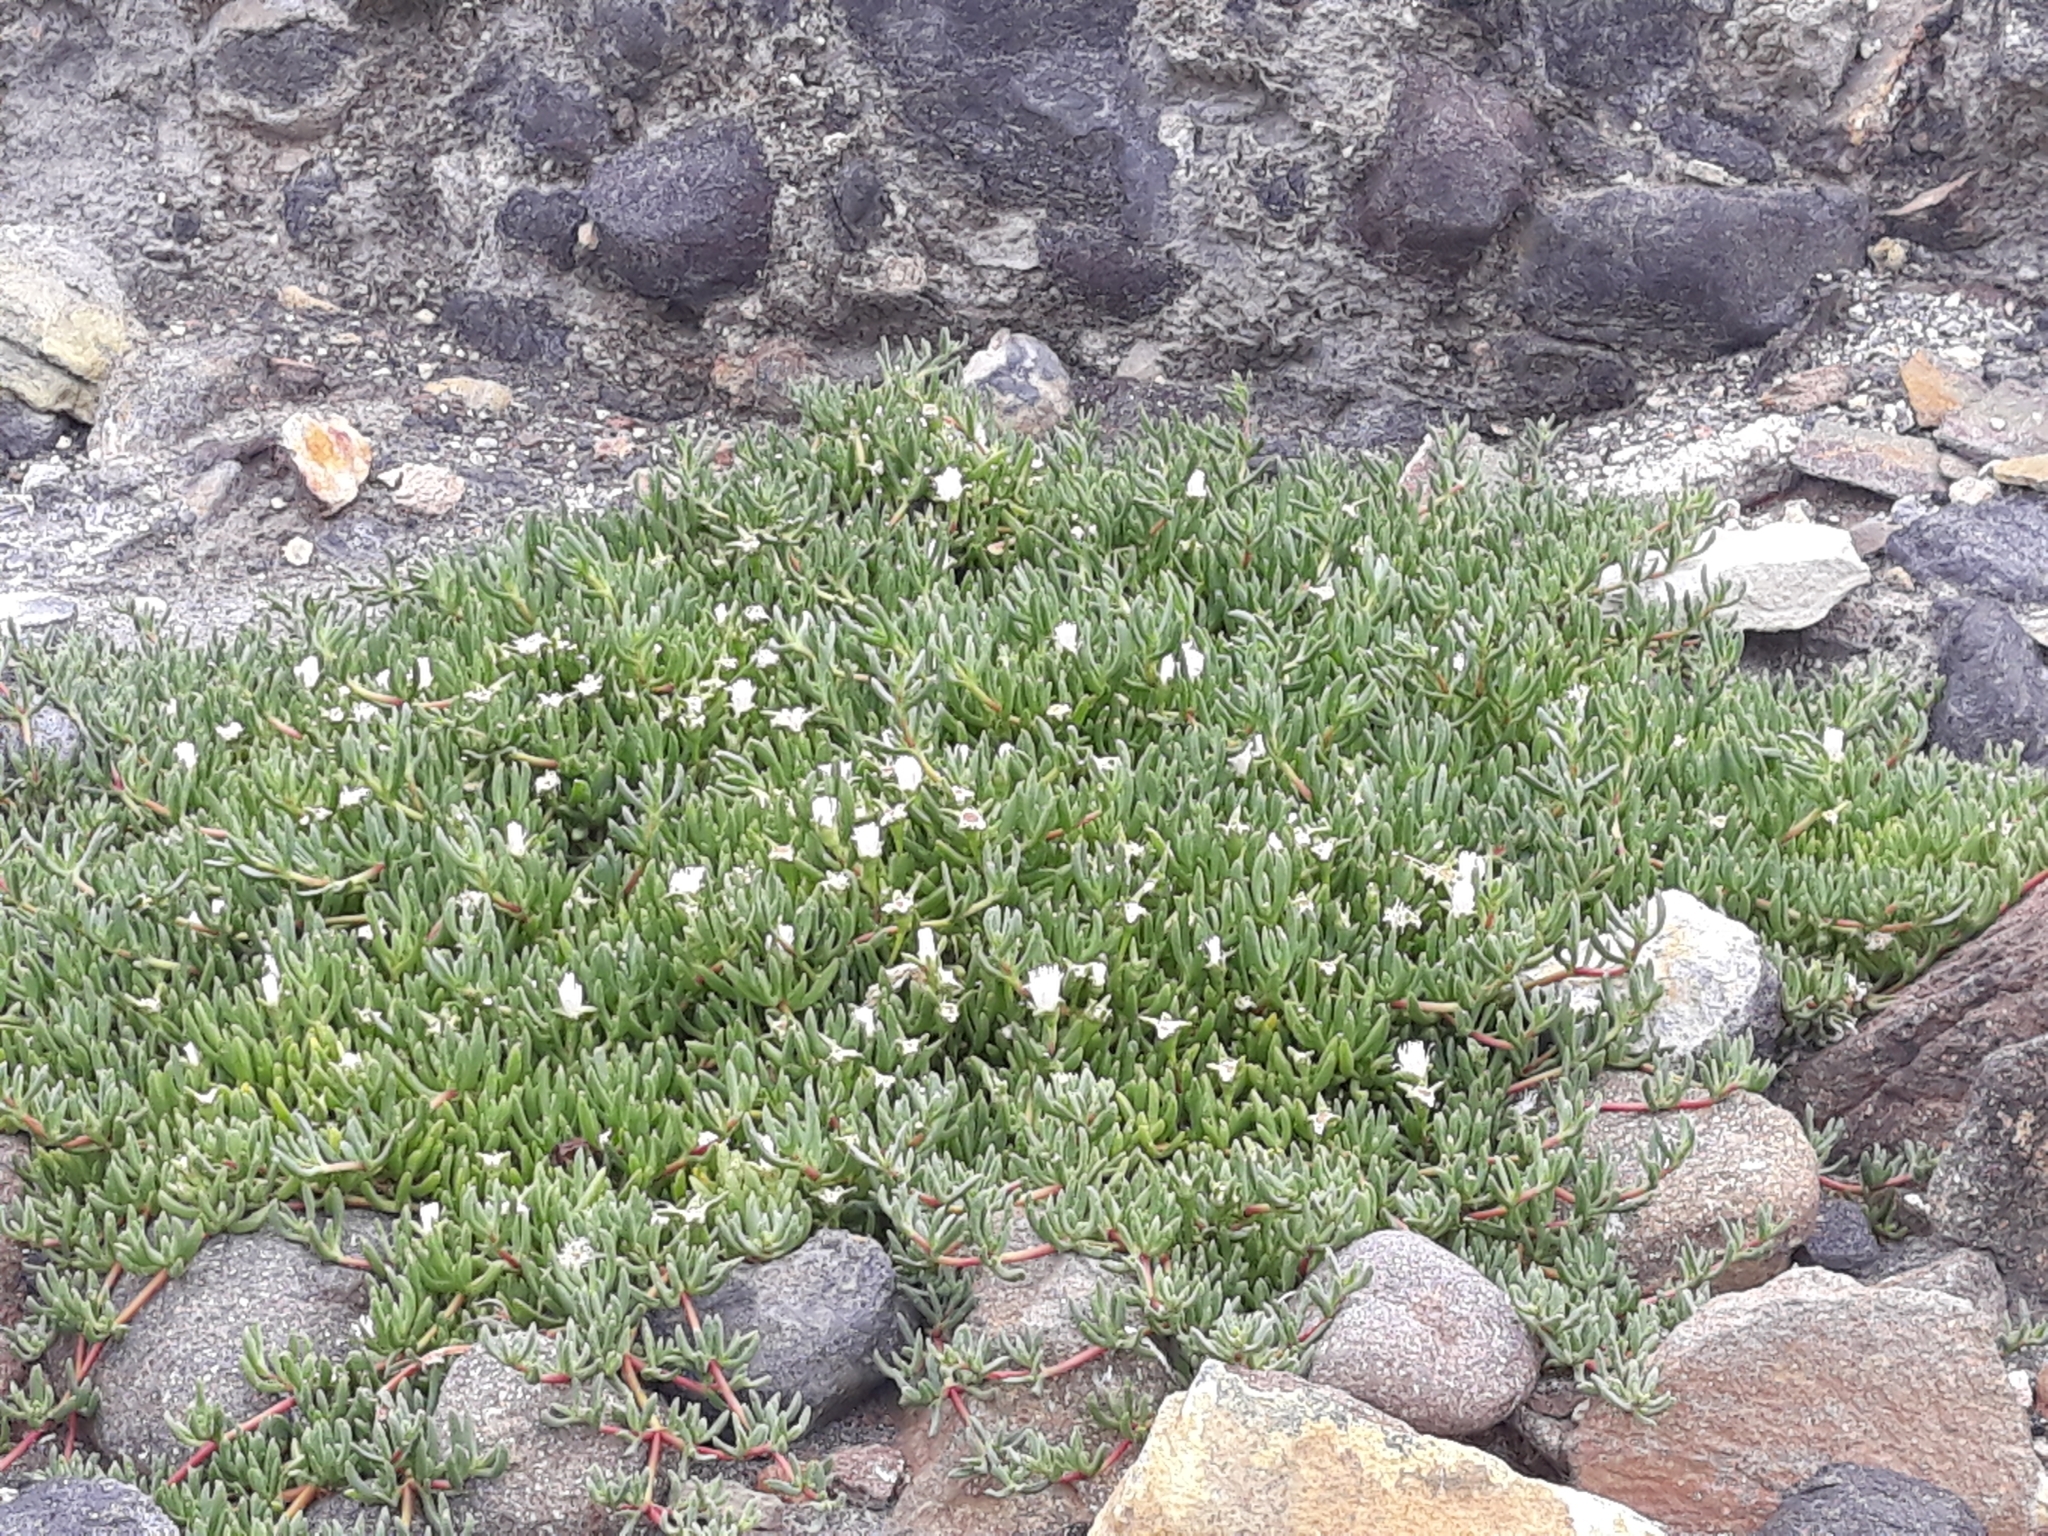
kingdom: Plantae
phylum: Tracheophyta
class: Magnoliopsida
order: Caryophyllales
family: Aizoaceae
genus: Disphyma
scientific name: Disphyma australe
